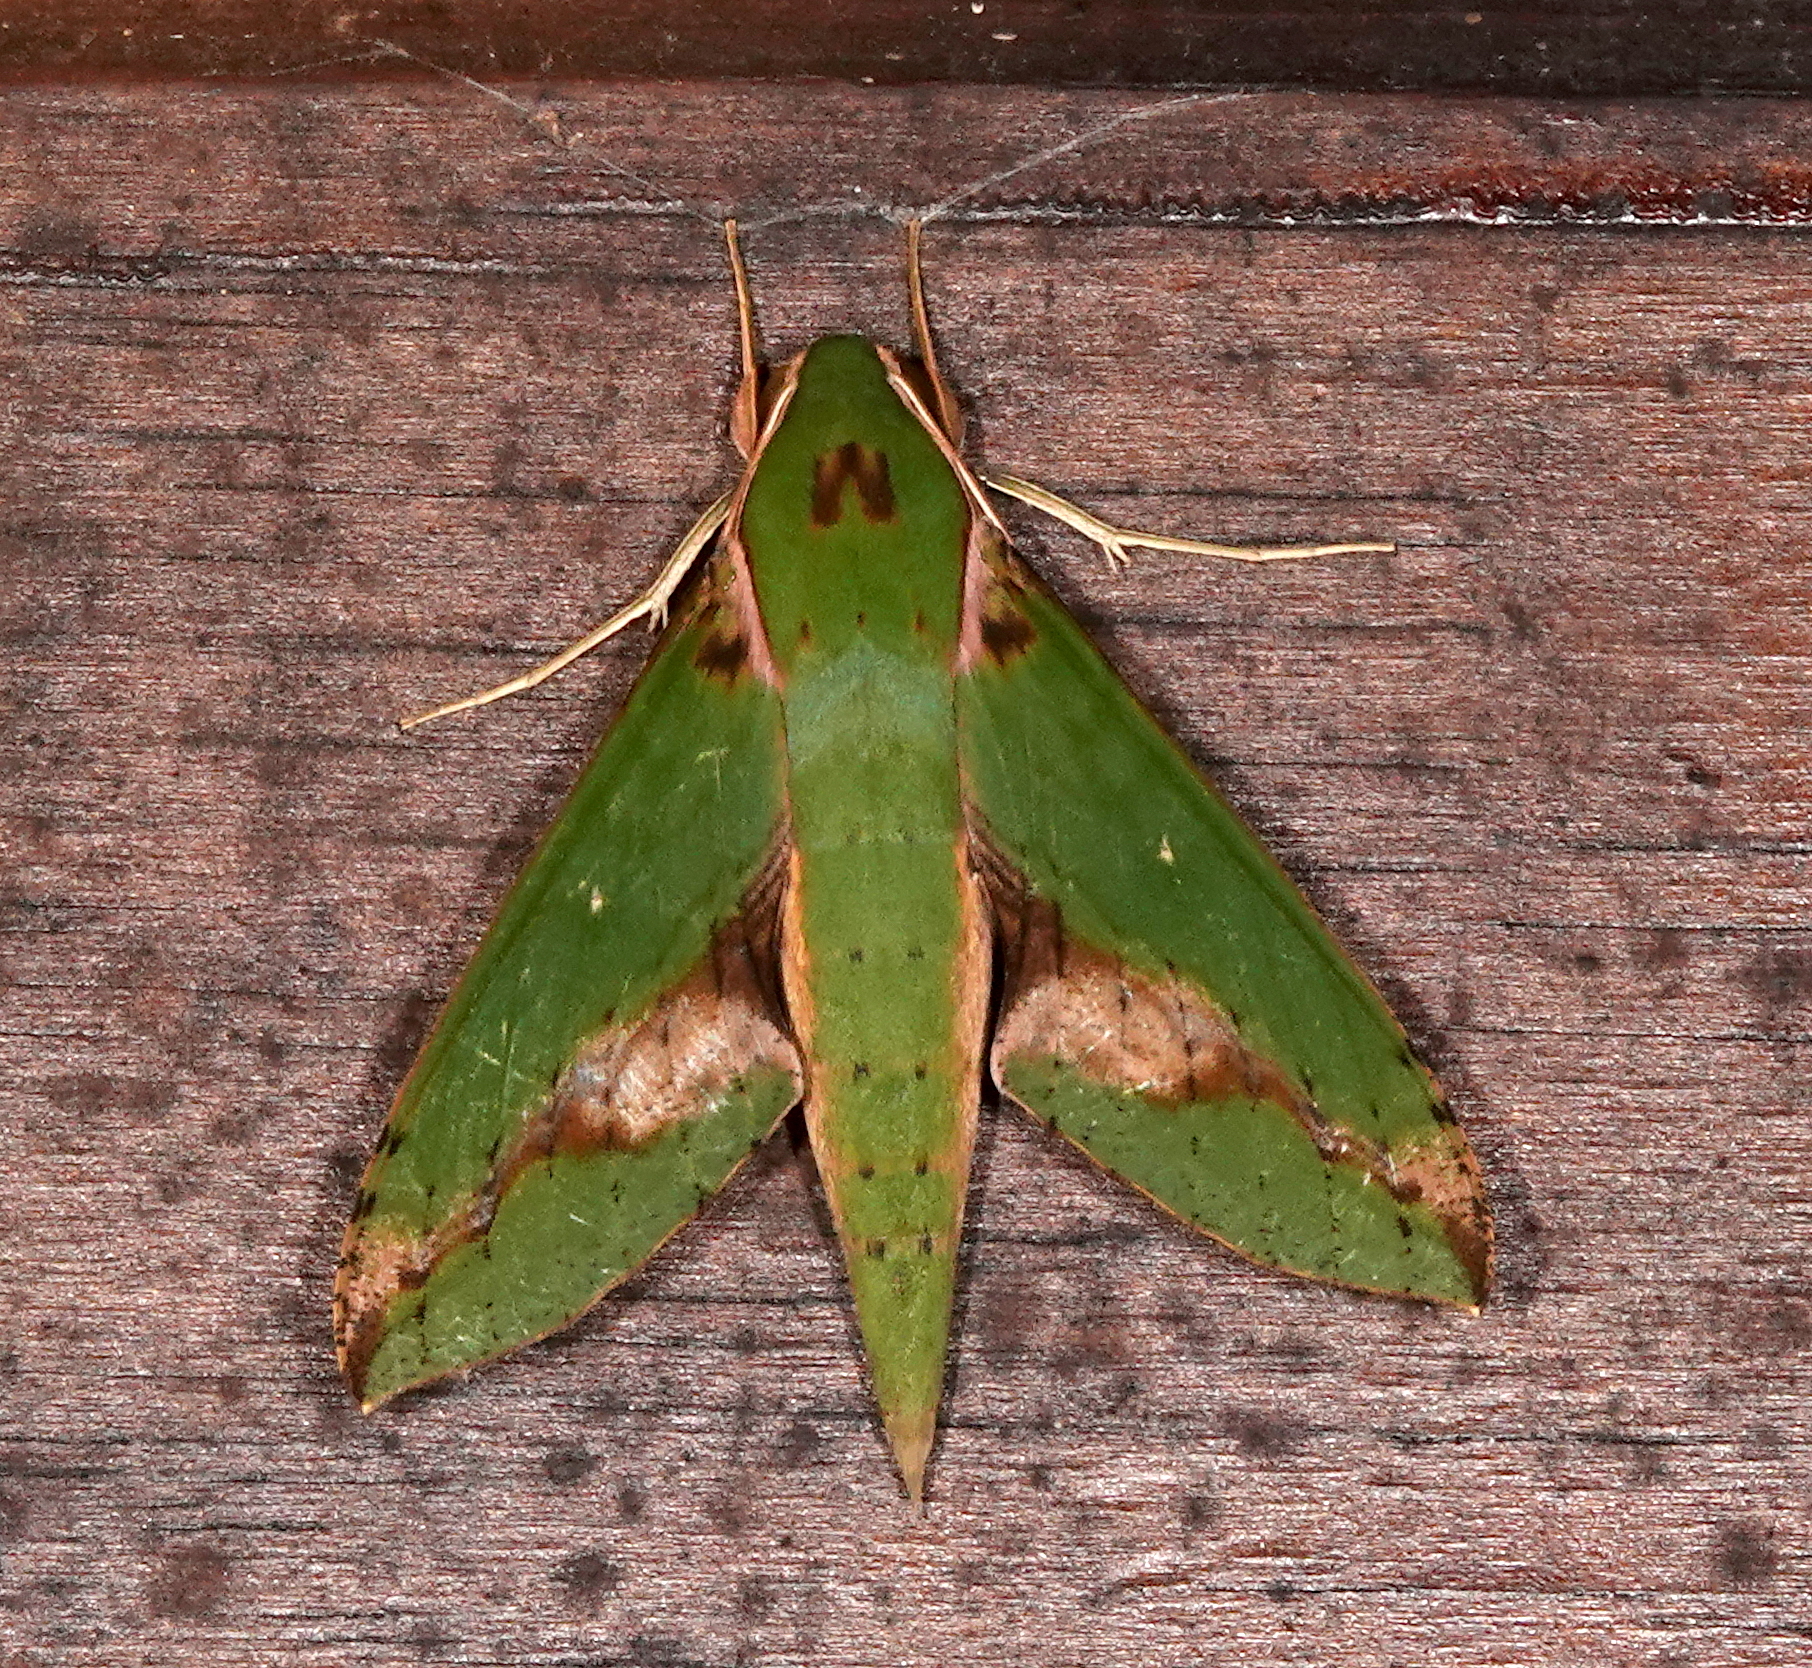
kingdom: Animalia
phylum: Arthropoda
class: Insecta
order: Lepidoptera
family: Sphingidae
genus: Xylophanes
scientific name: Xylophanes chiron
